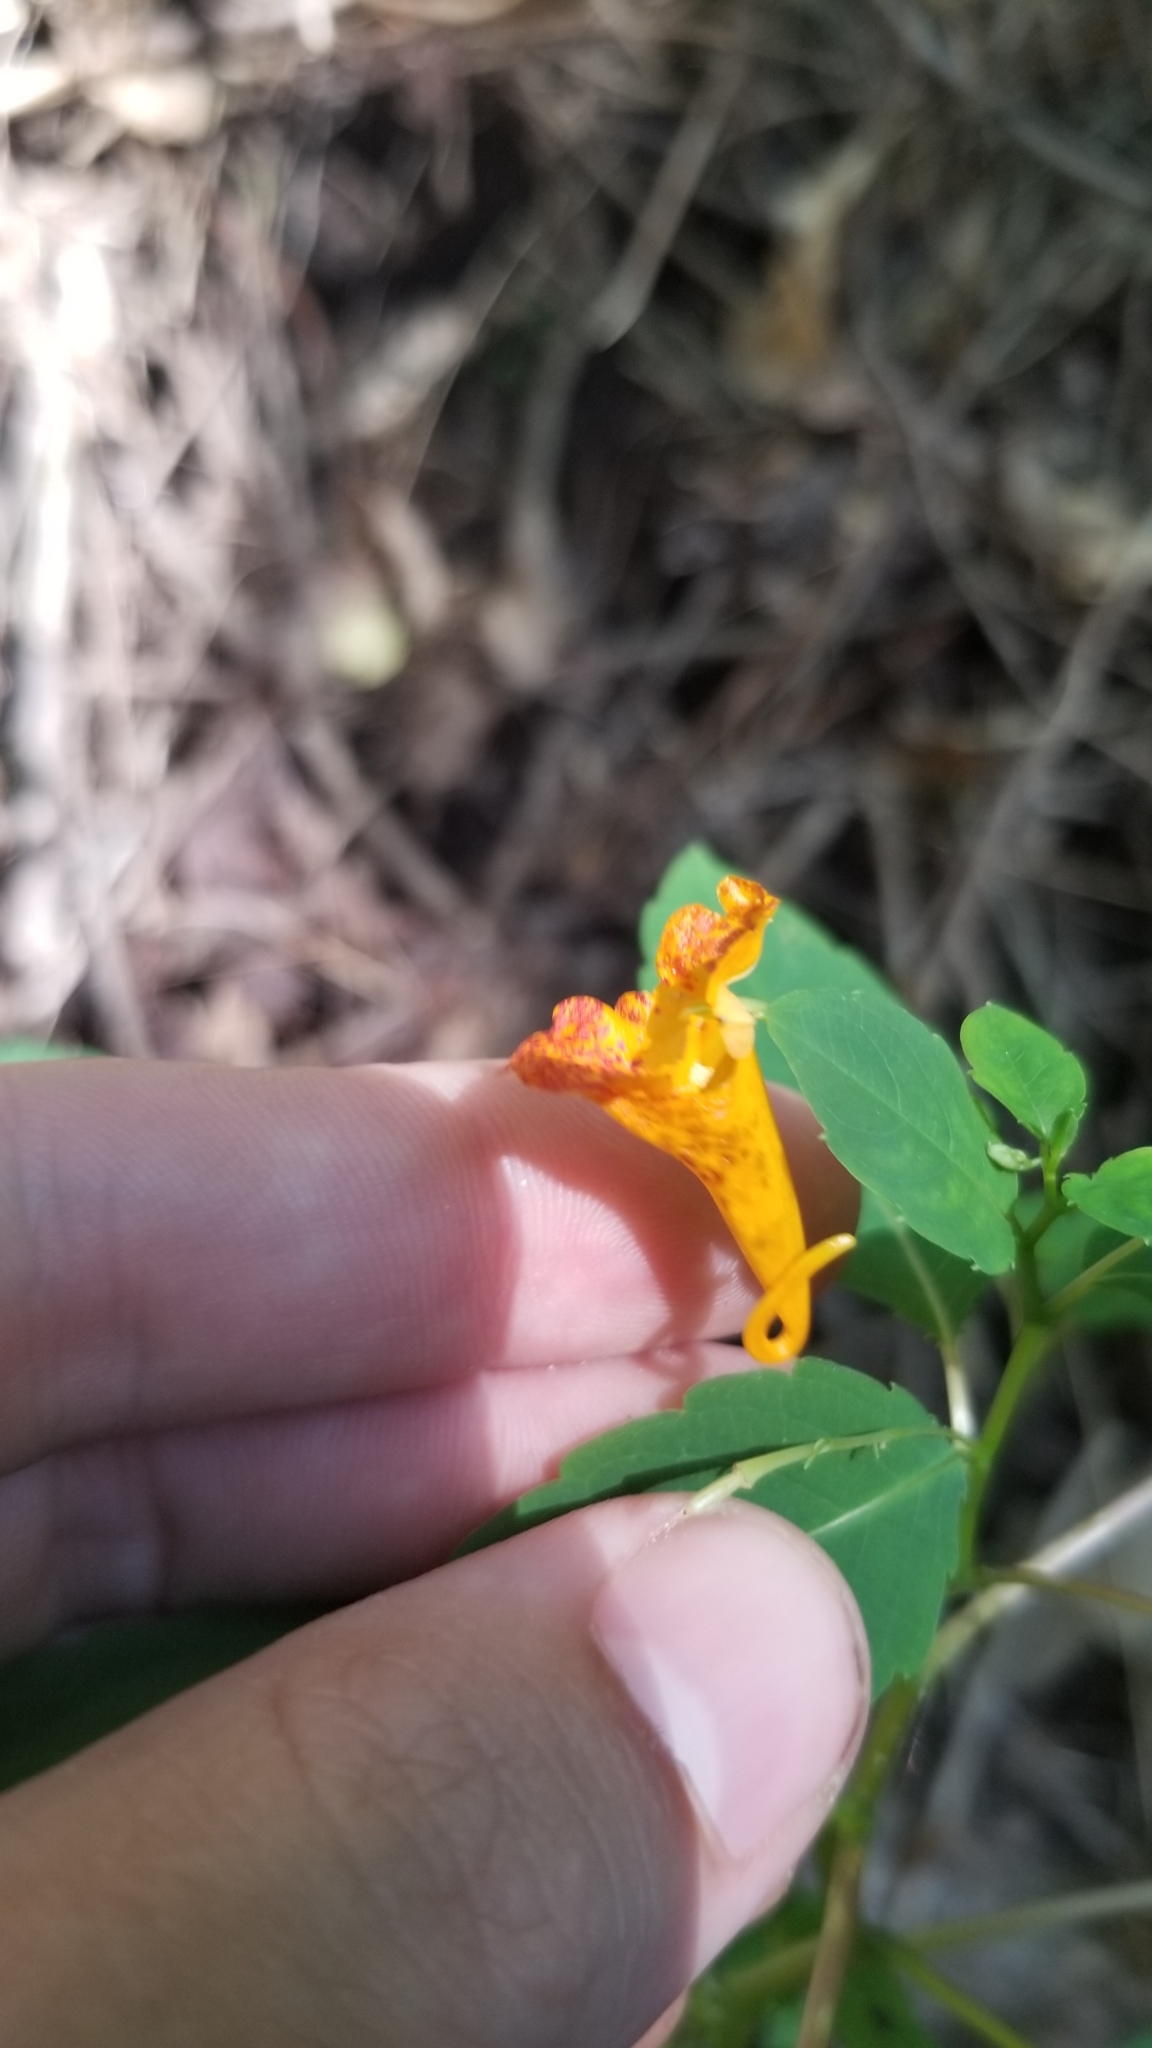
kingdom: Plantae
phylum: Tracheophyta
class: Magnoliopsida
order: Ericales
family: Balsaminaceae
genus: Impatiens
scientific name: Impatiens capensis
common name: Orange balsam
